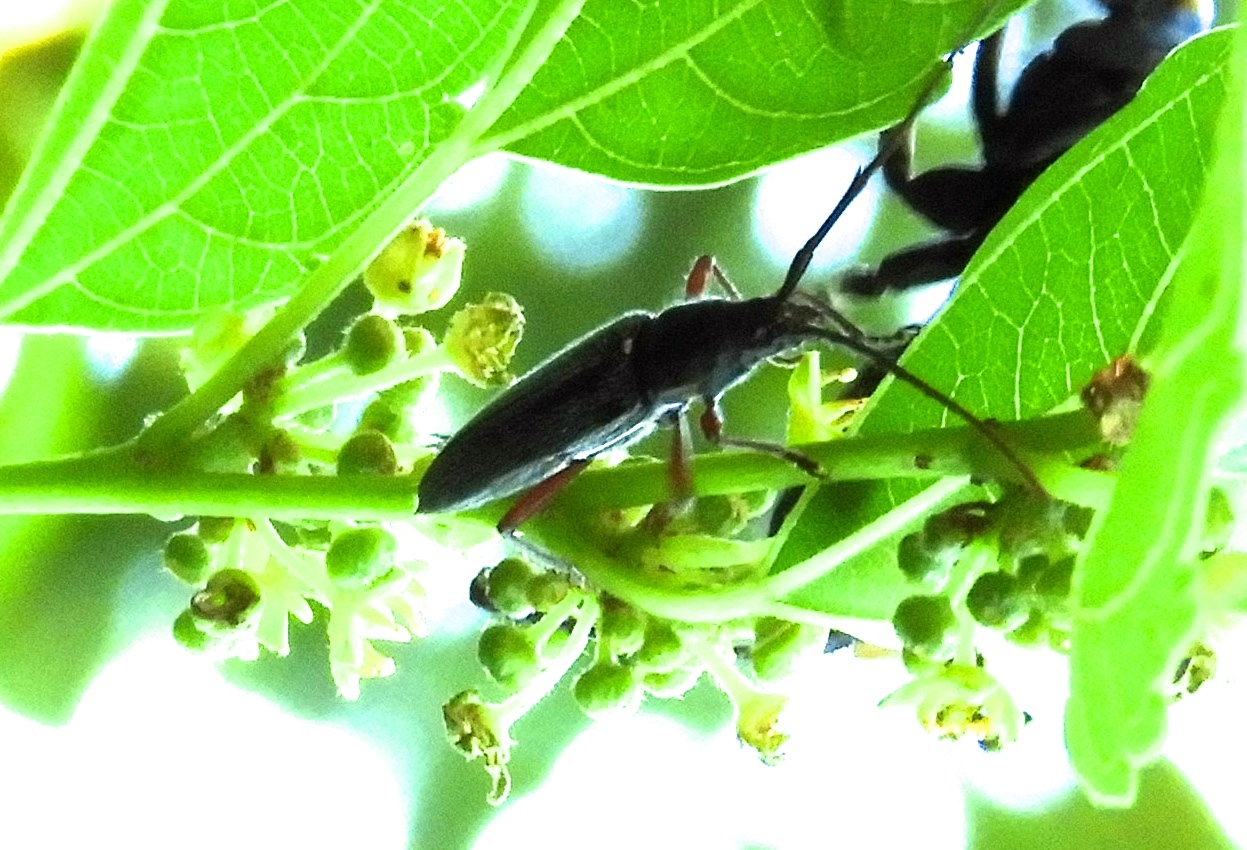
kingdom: Animalia
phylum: Arthropoda
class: Insecta
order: Coleoptera
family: Cerambycidae
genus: Stenosphenus
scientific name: Stenosphenus
